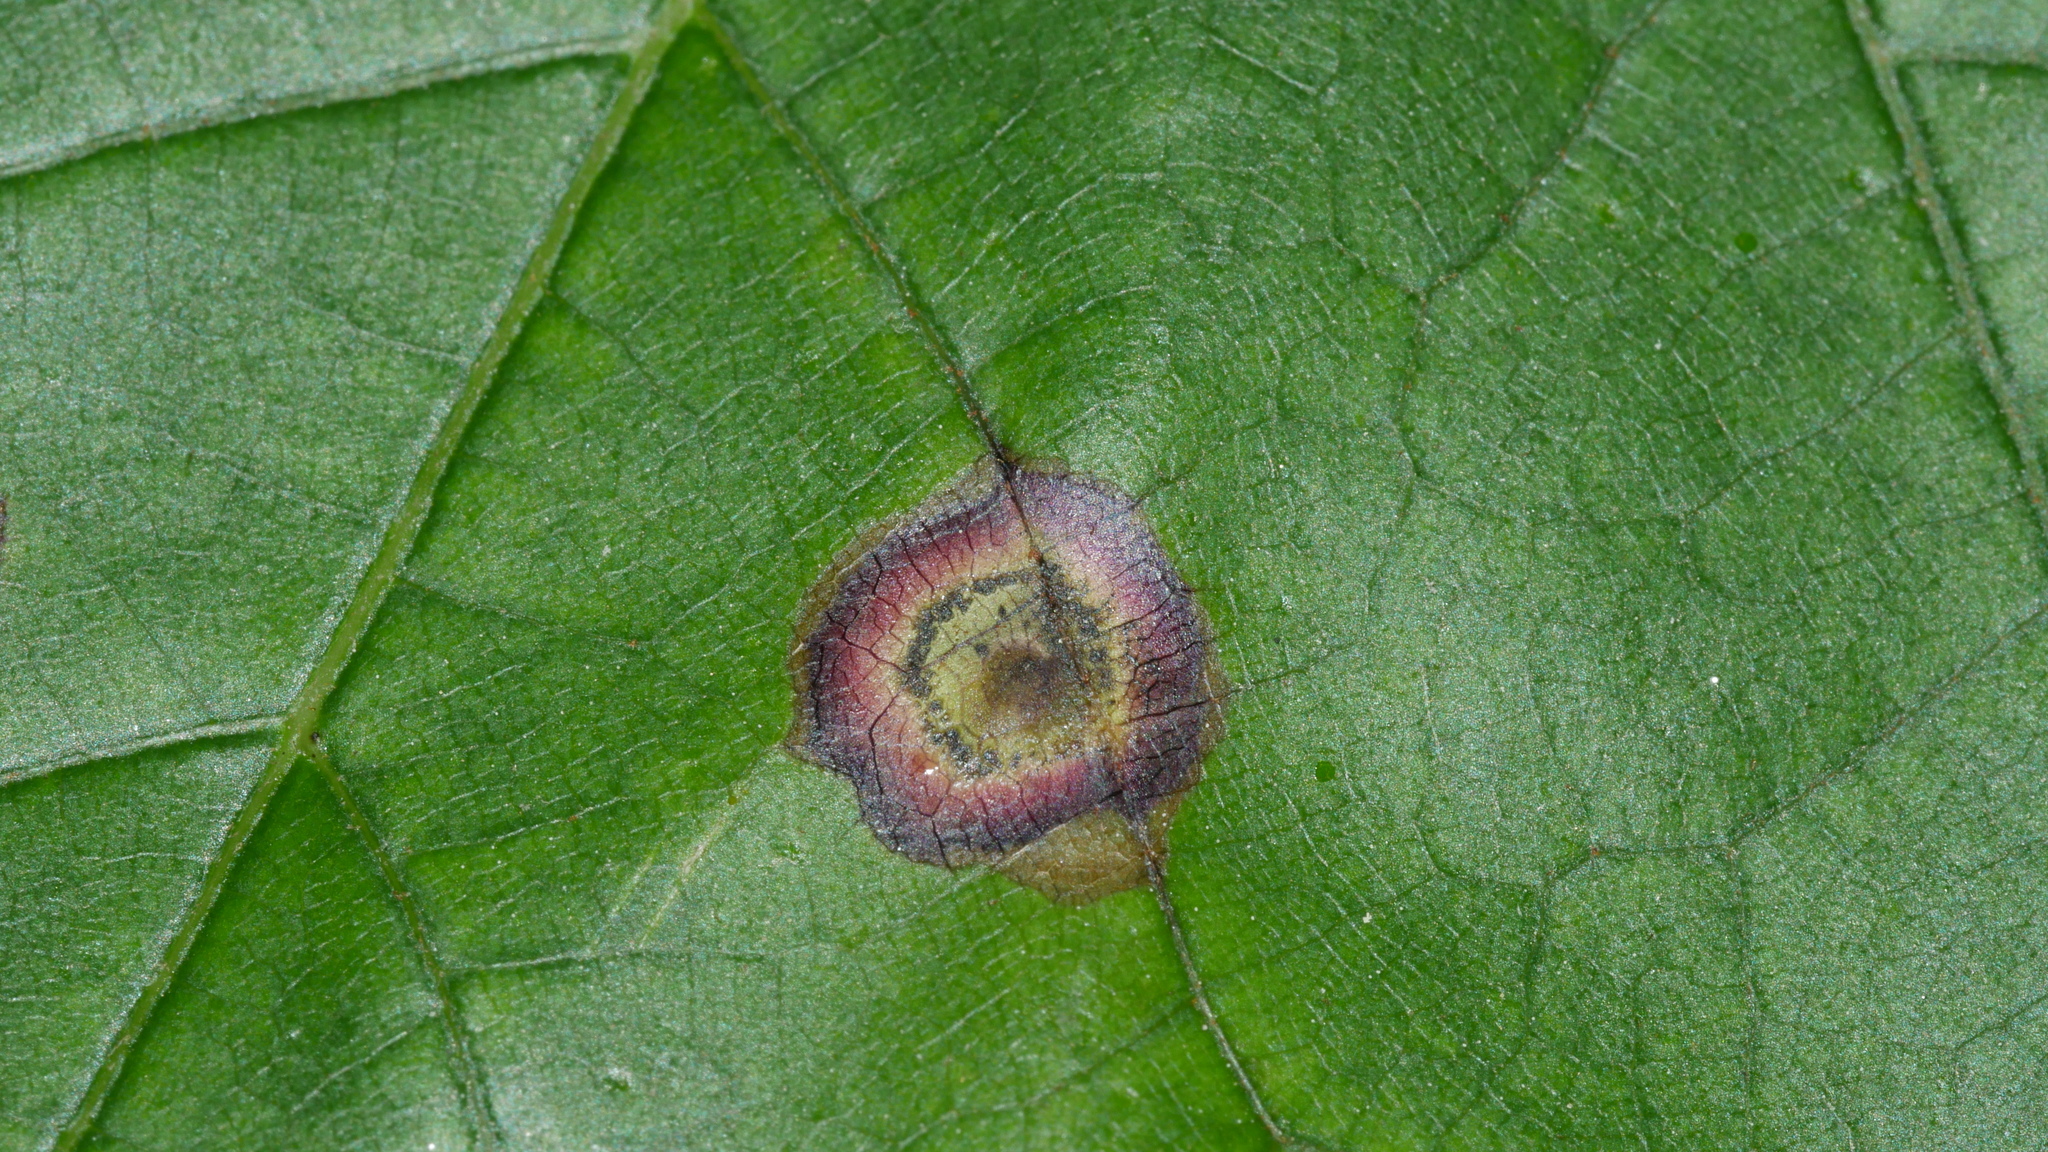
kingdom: Animalia
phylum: Arthropoda
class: Insecta
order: Diptera
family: Cecidomyiidae
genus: Acericecis
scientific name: Acericecis ocellaris
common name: Ocellate gall midge
